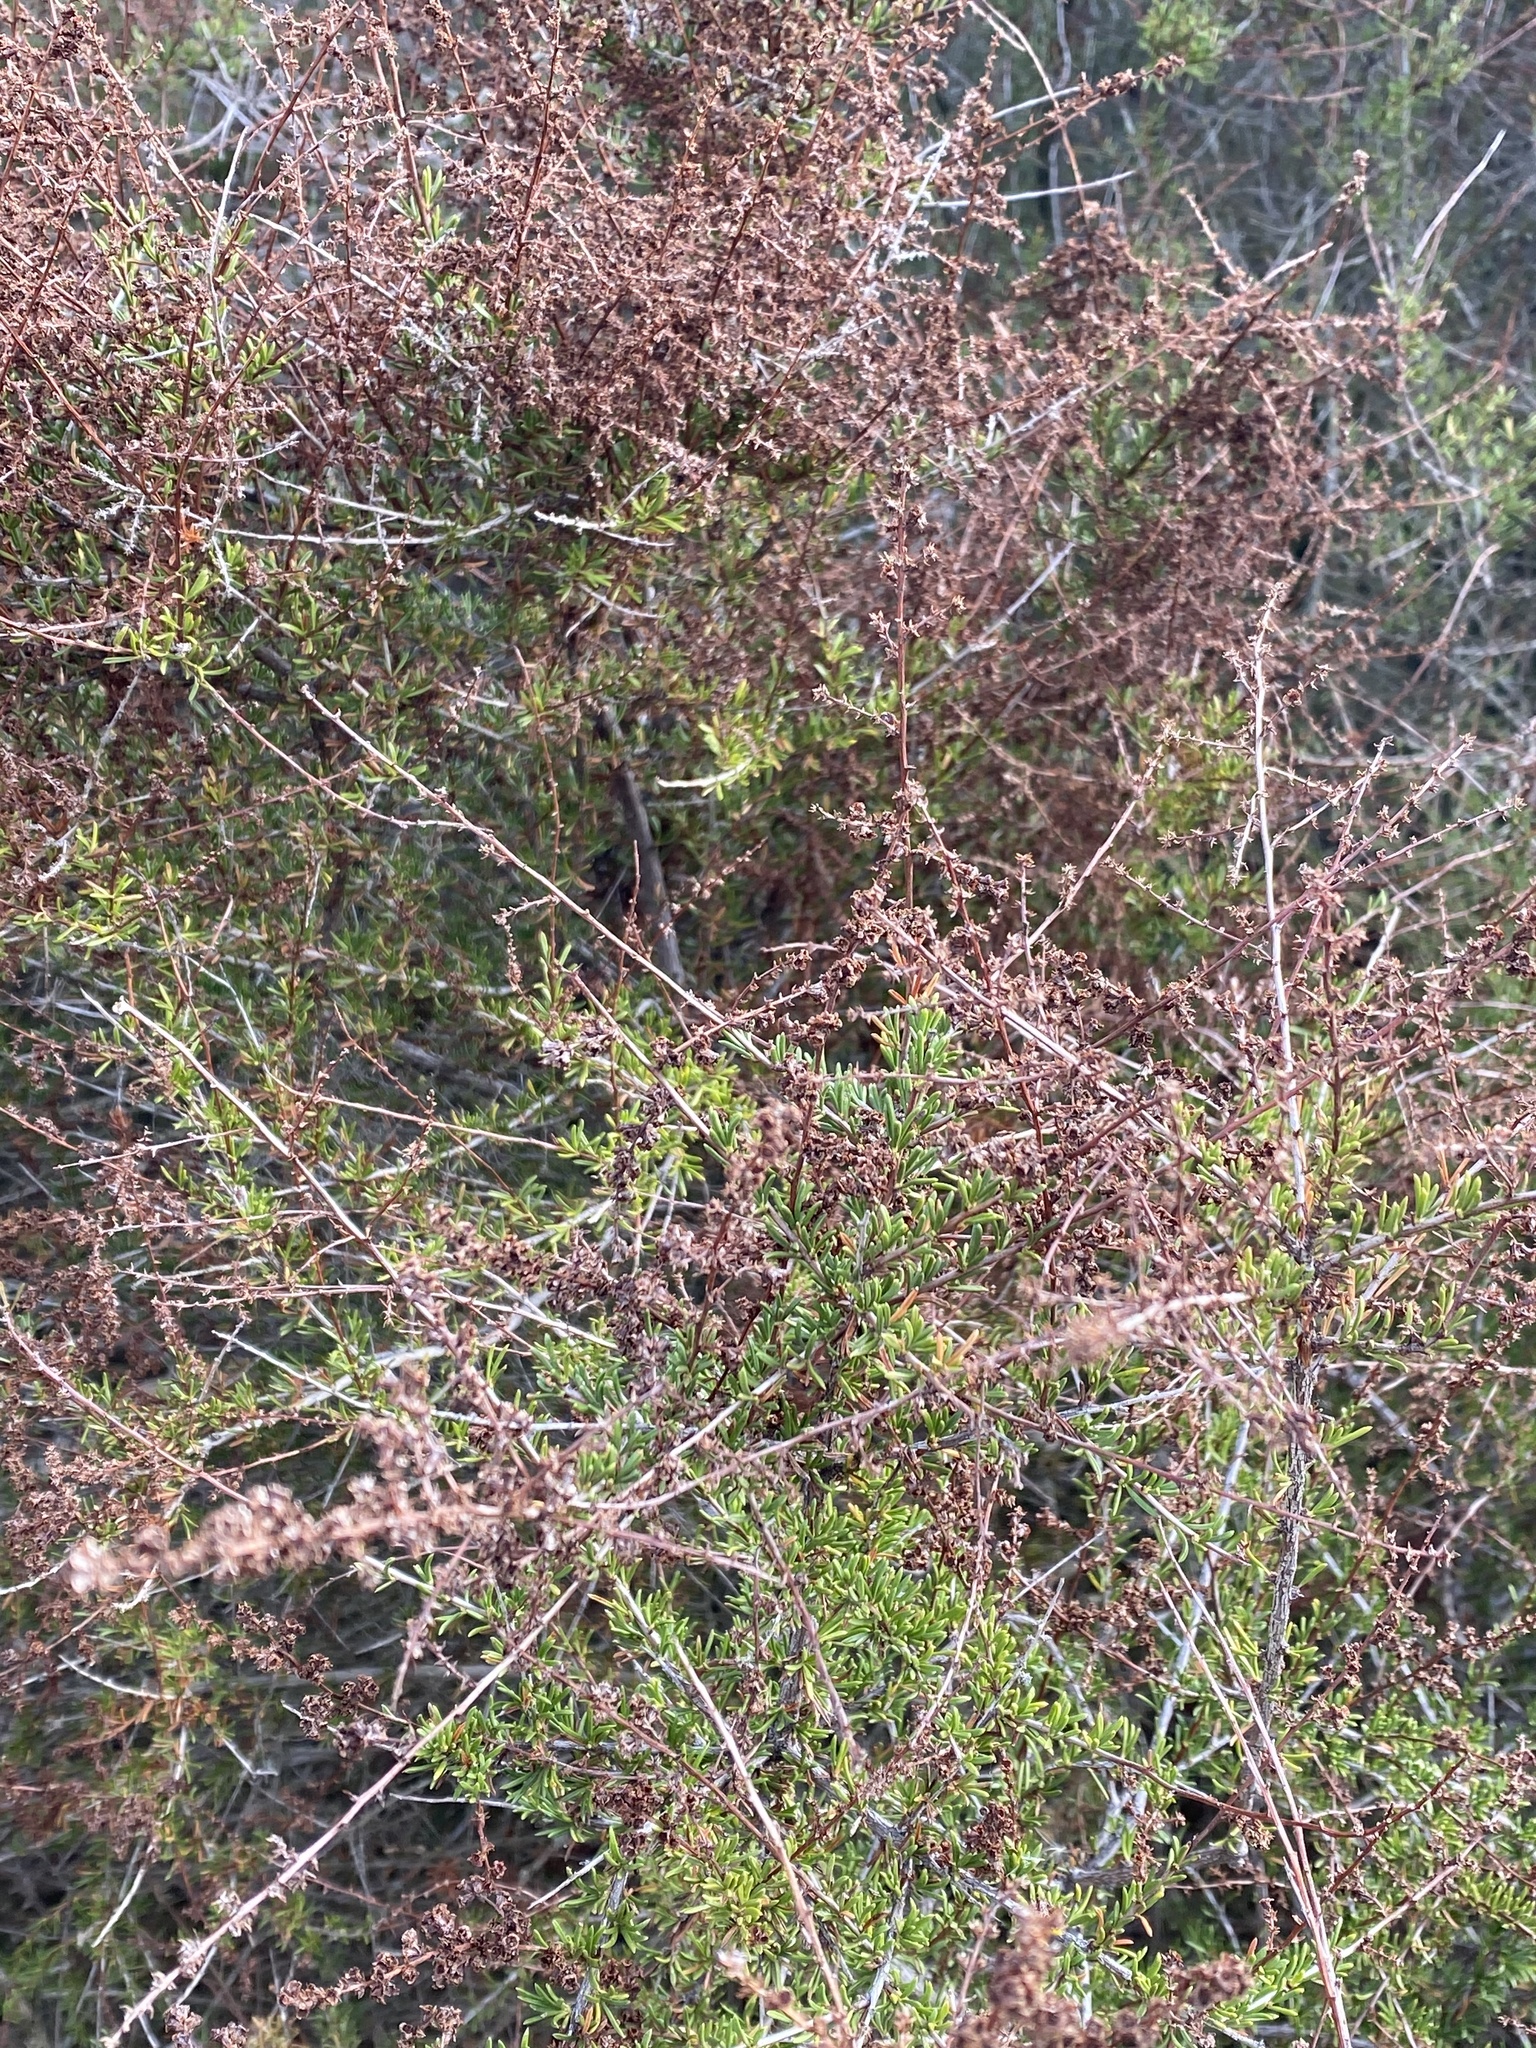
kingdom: Plantae
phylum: Tracheophyta
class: Magnoliopsida
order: Rosales
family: Rosaceae
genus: Adenostoma
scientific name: Adenostoma fasciculatum
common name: Chamise
